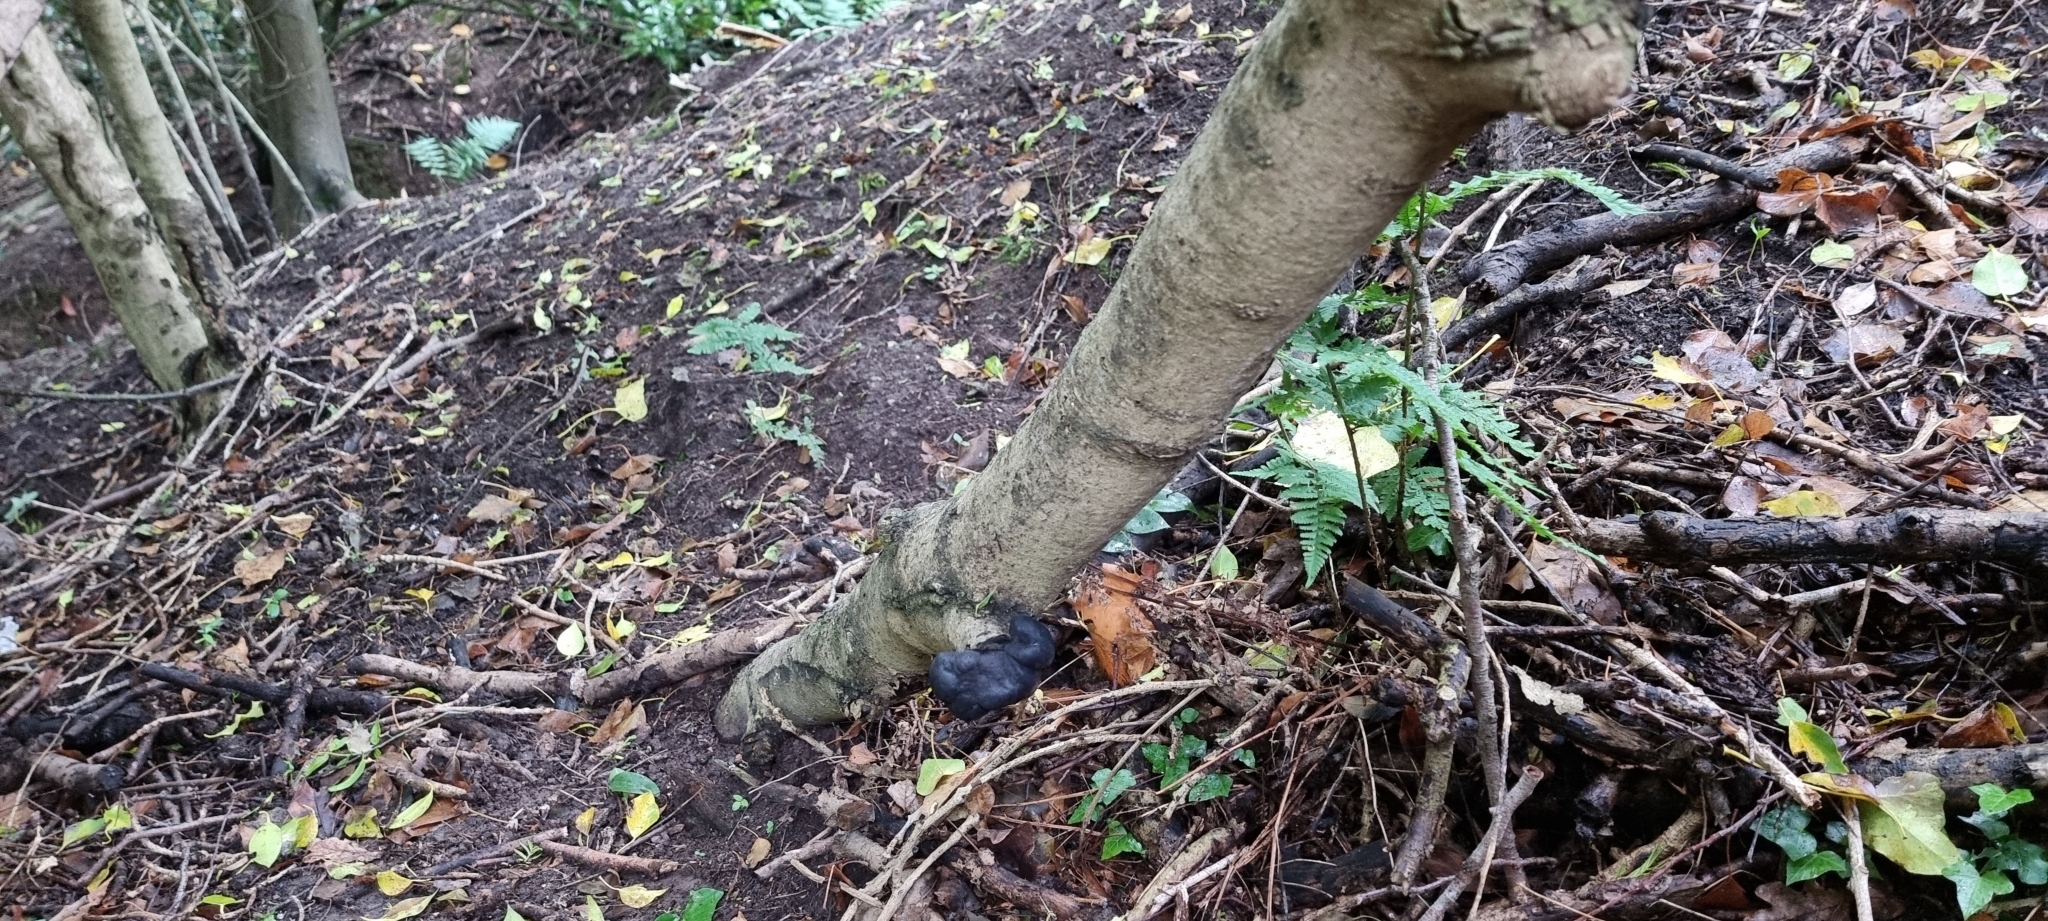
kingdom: Fungi
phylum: Ascomycota
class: Sordariomycetes
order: Xylariales
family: Hypoxylaceae
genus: Daldinia
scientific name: Daldinia concentrica
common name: Cramp balls
